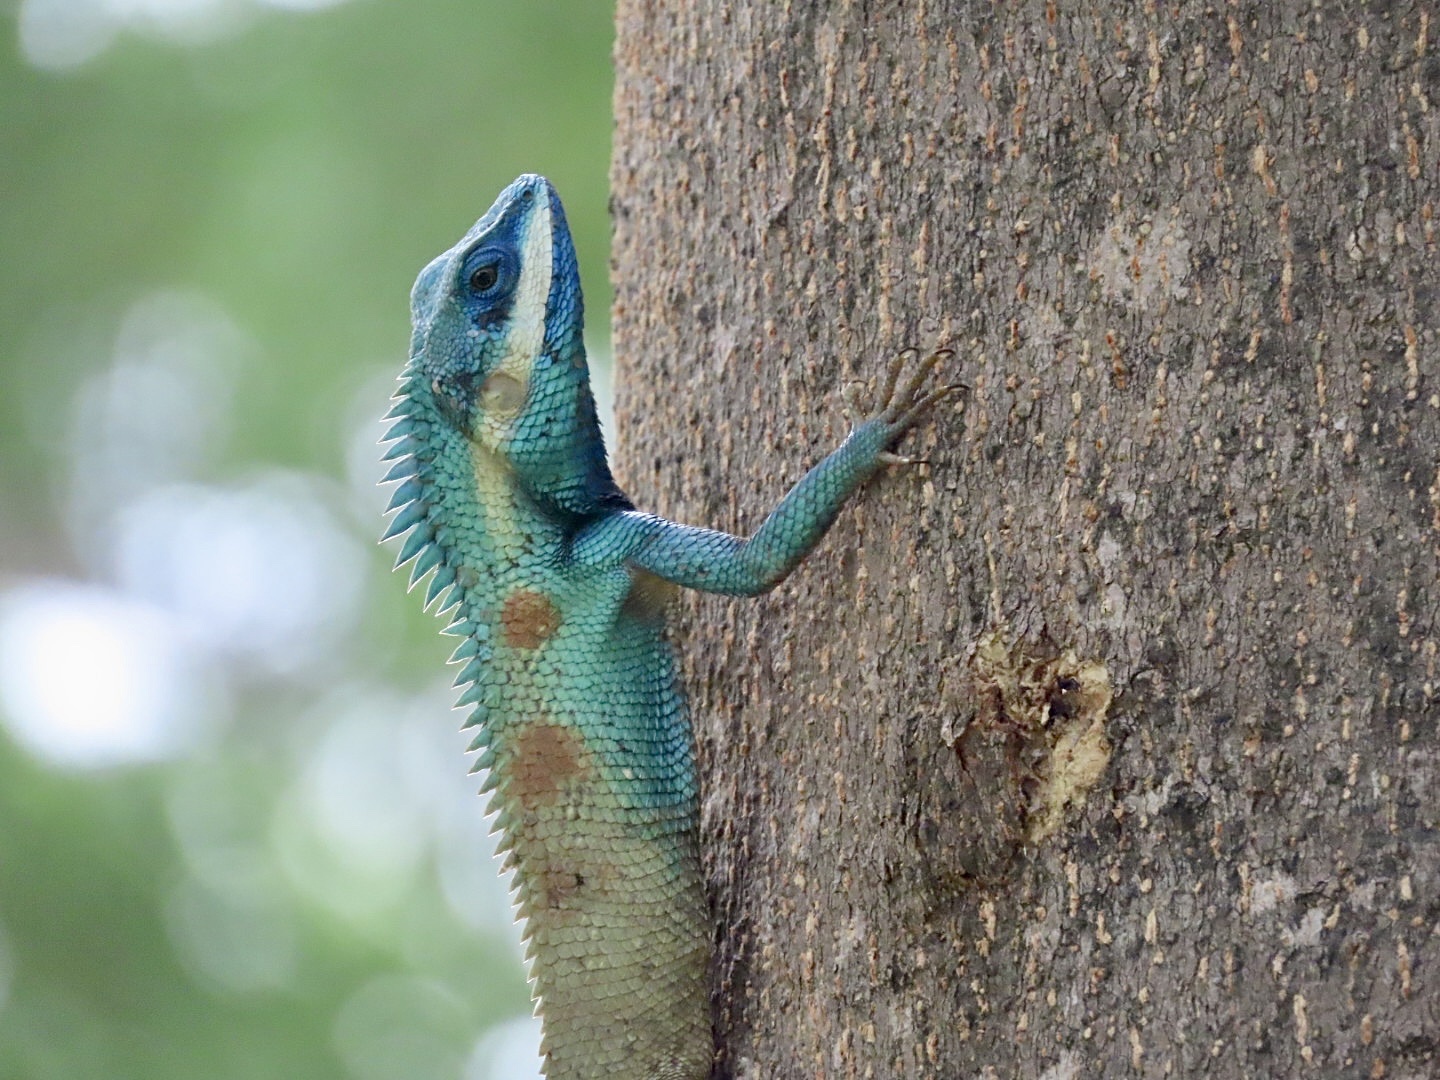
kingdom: Animalia
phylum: Chordata
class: Squamata
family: Agamidae
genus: Calotes
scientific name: Calotes goetzi
